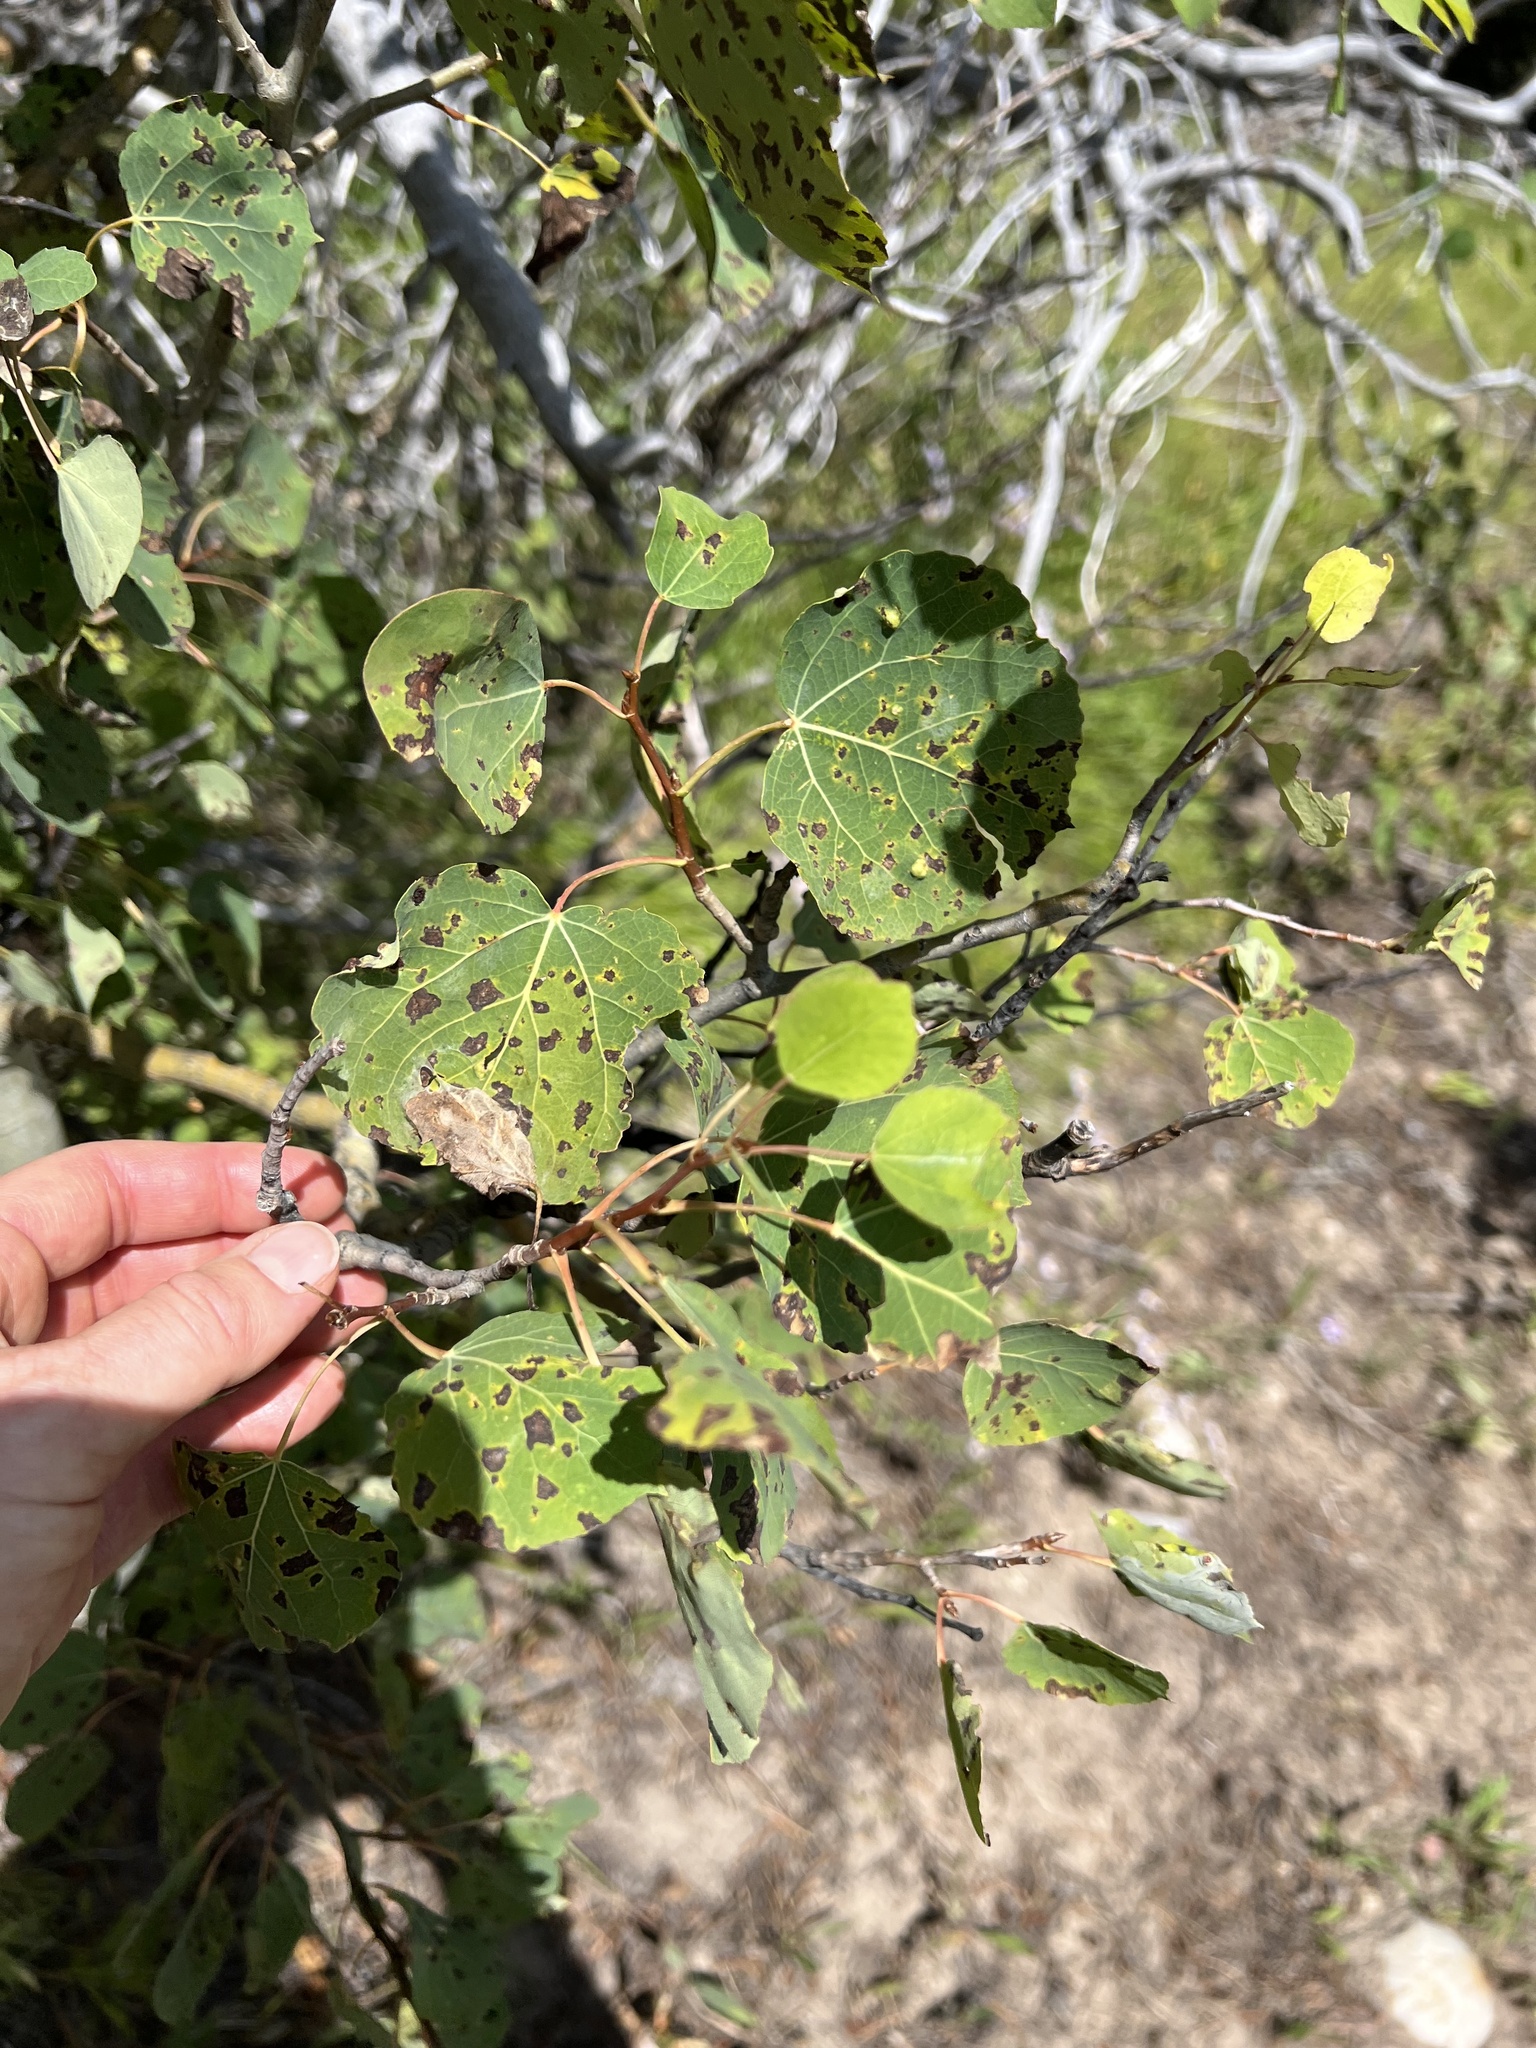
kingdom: Plantae
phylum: Tracheophyta
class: Magnoliopsida
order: Malpighiales
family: Salicaceae
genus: Populus
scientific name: Populus tremuloides
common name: Quaking aspen
